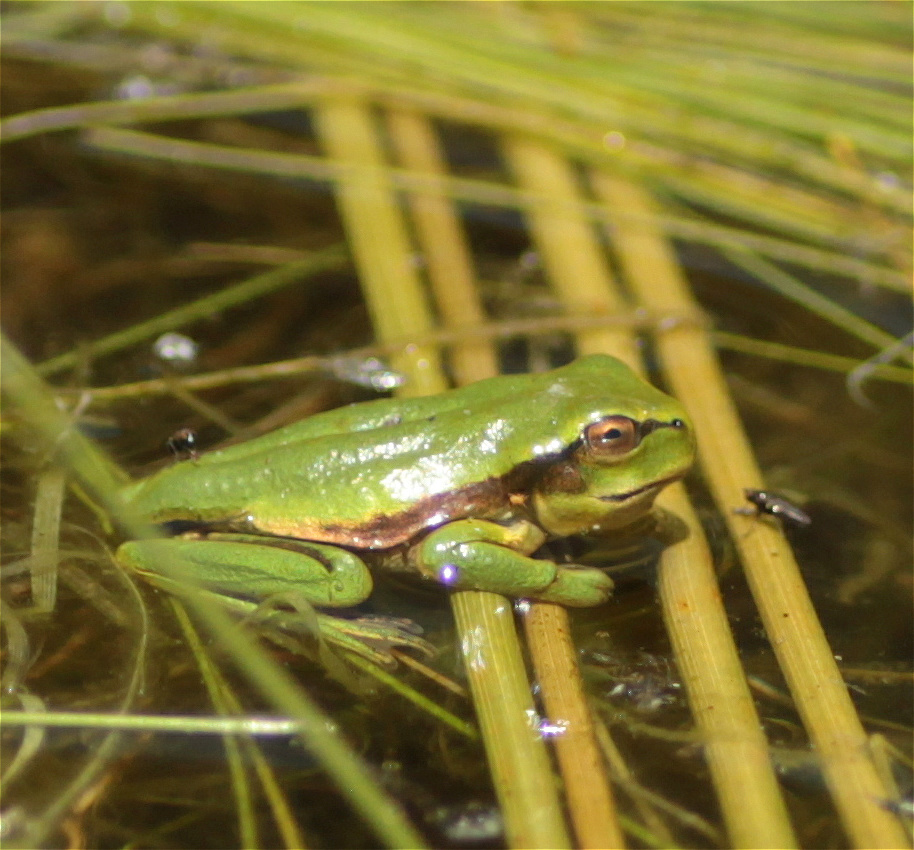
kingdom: Animalia
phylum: Chordata
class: Amphibia
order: Anura
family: Hylidae
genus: Dendropsophus
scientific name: Dendropsophus molitor
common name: Green dotted treefrog
